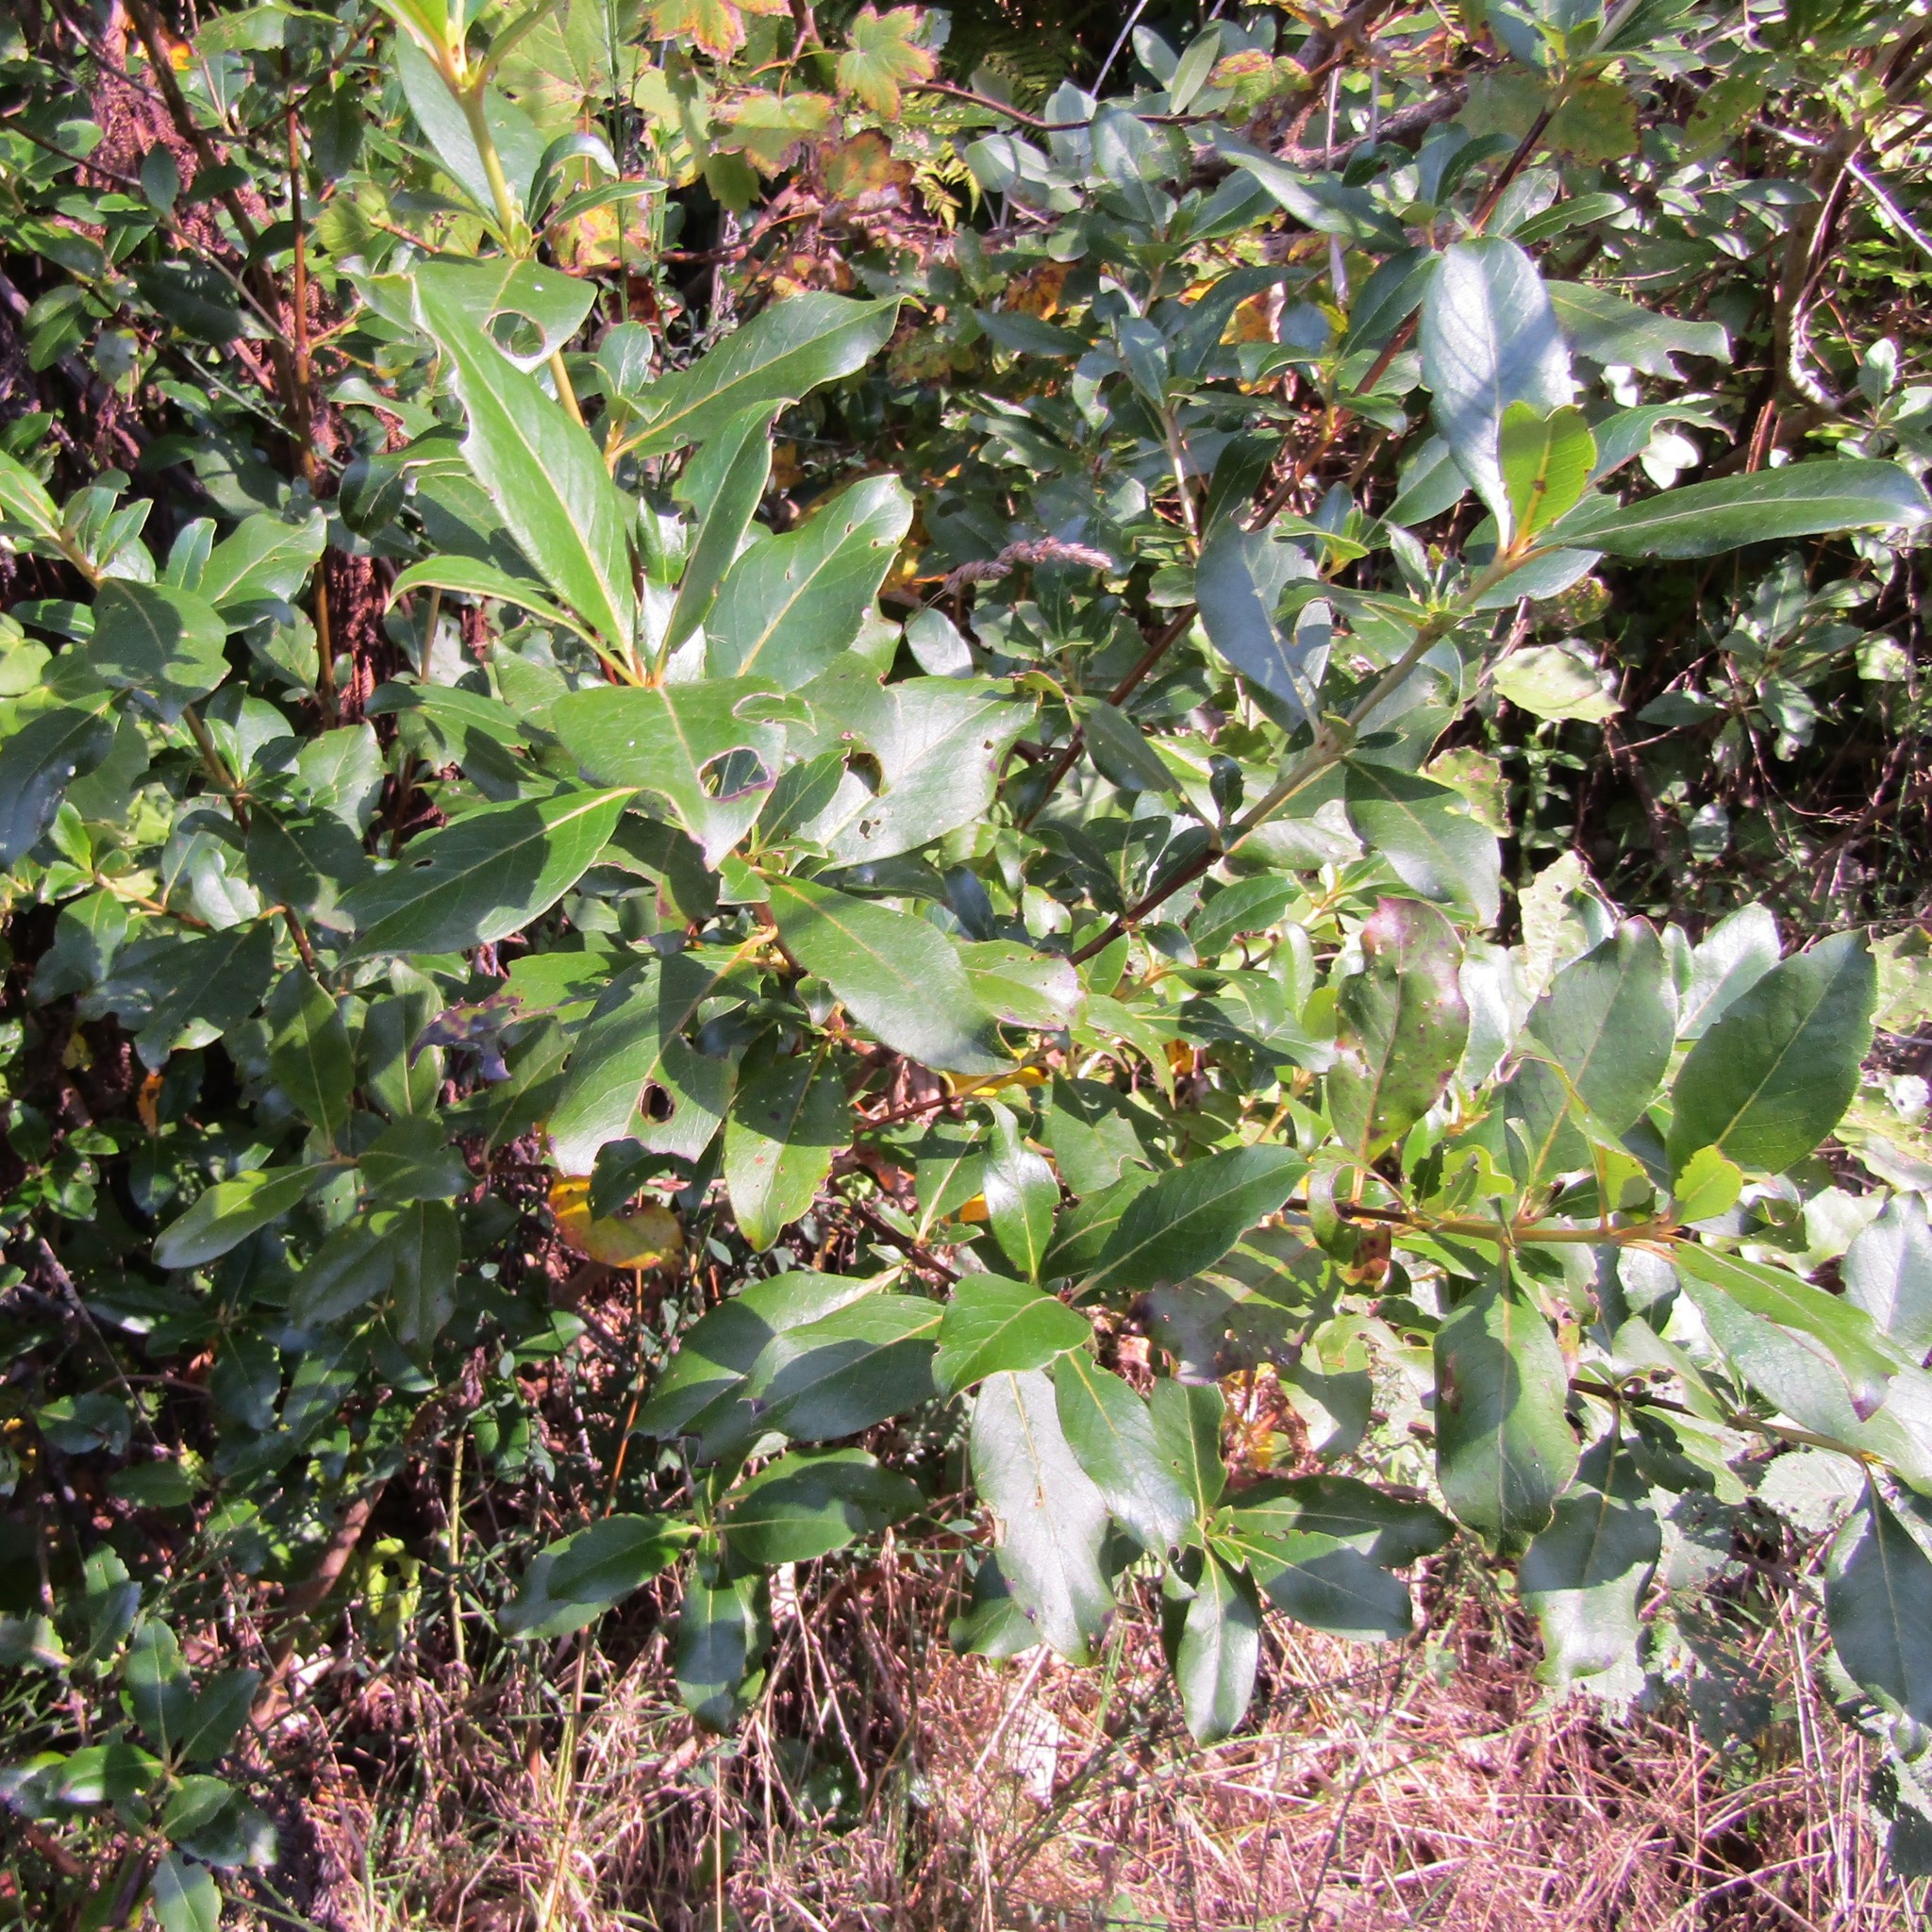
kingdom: Plantae
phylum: Tracheophyta
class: Magnoliopsida
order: Gentianales
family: Rubiaceae
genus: Coprosma
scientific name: Coprosma robusta
